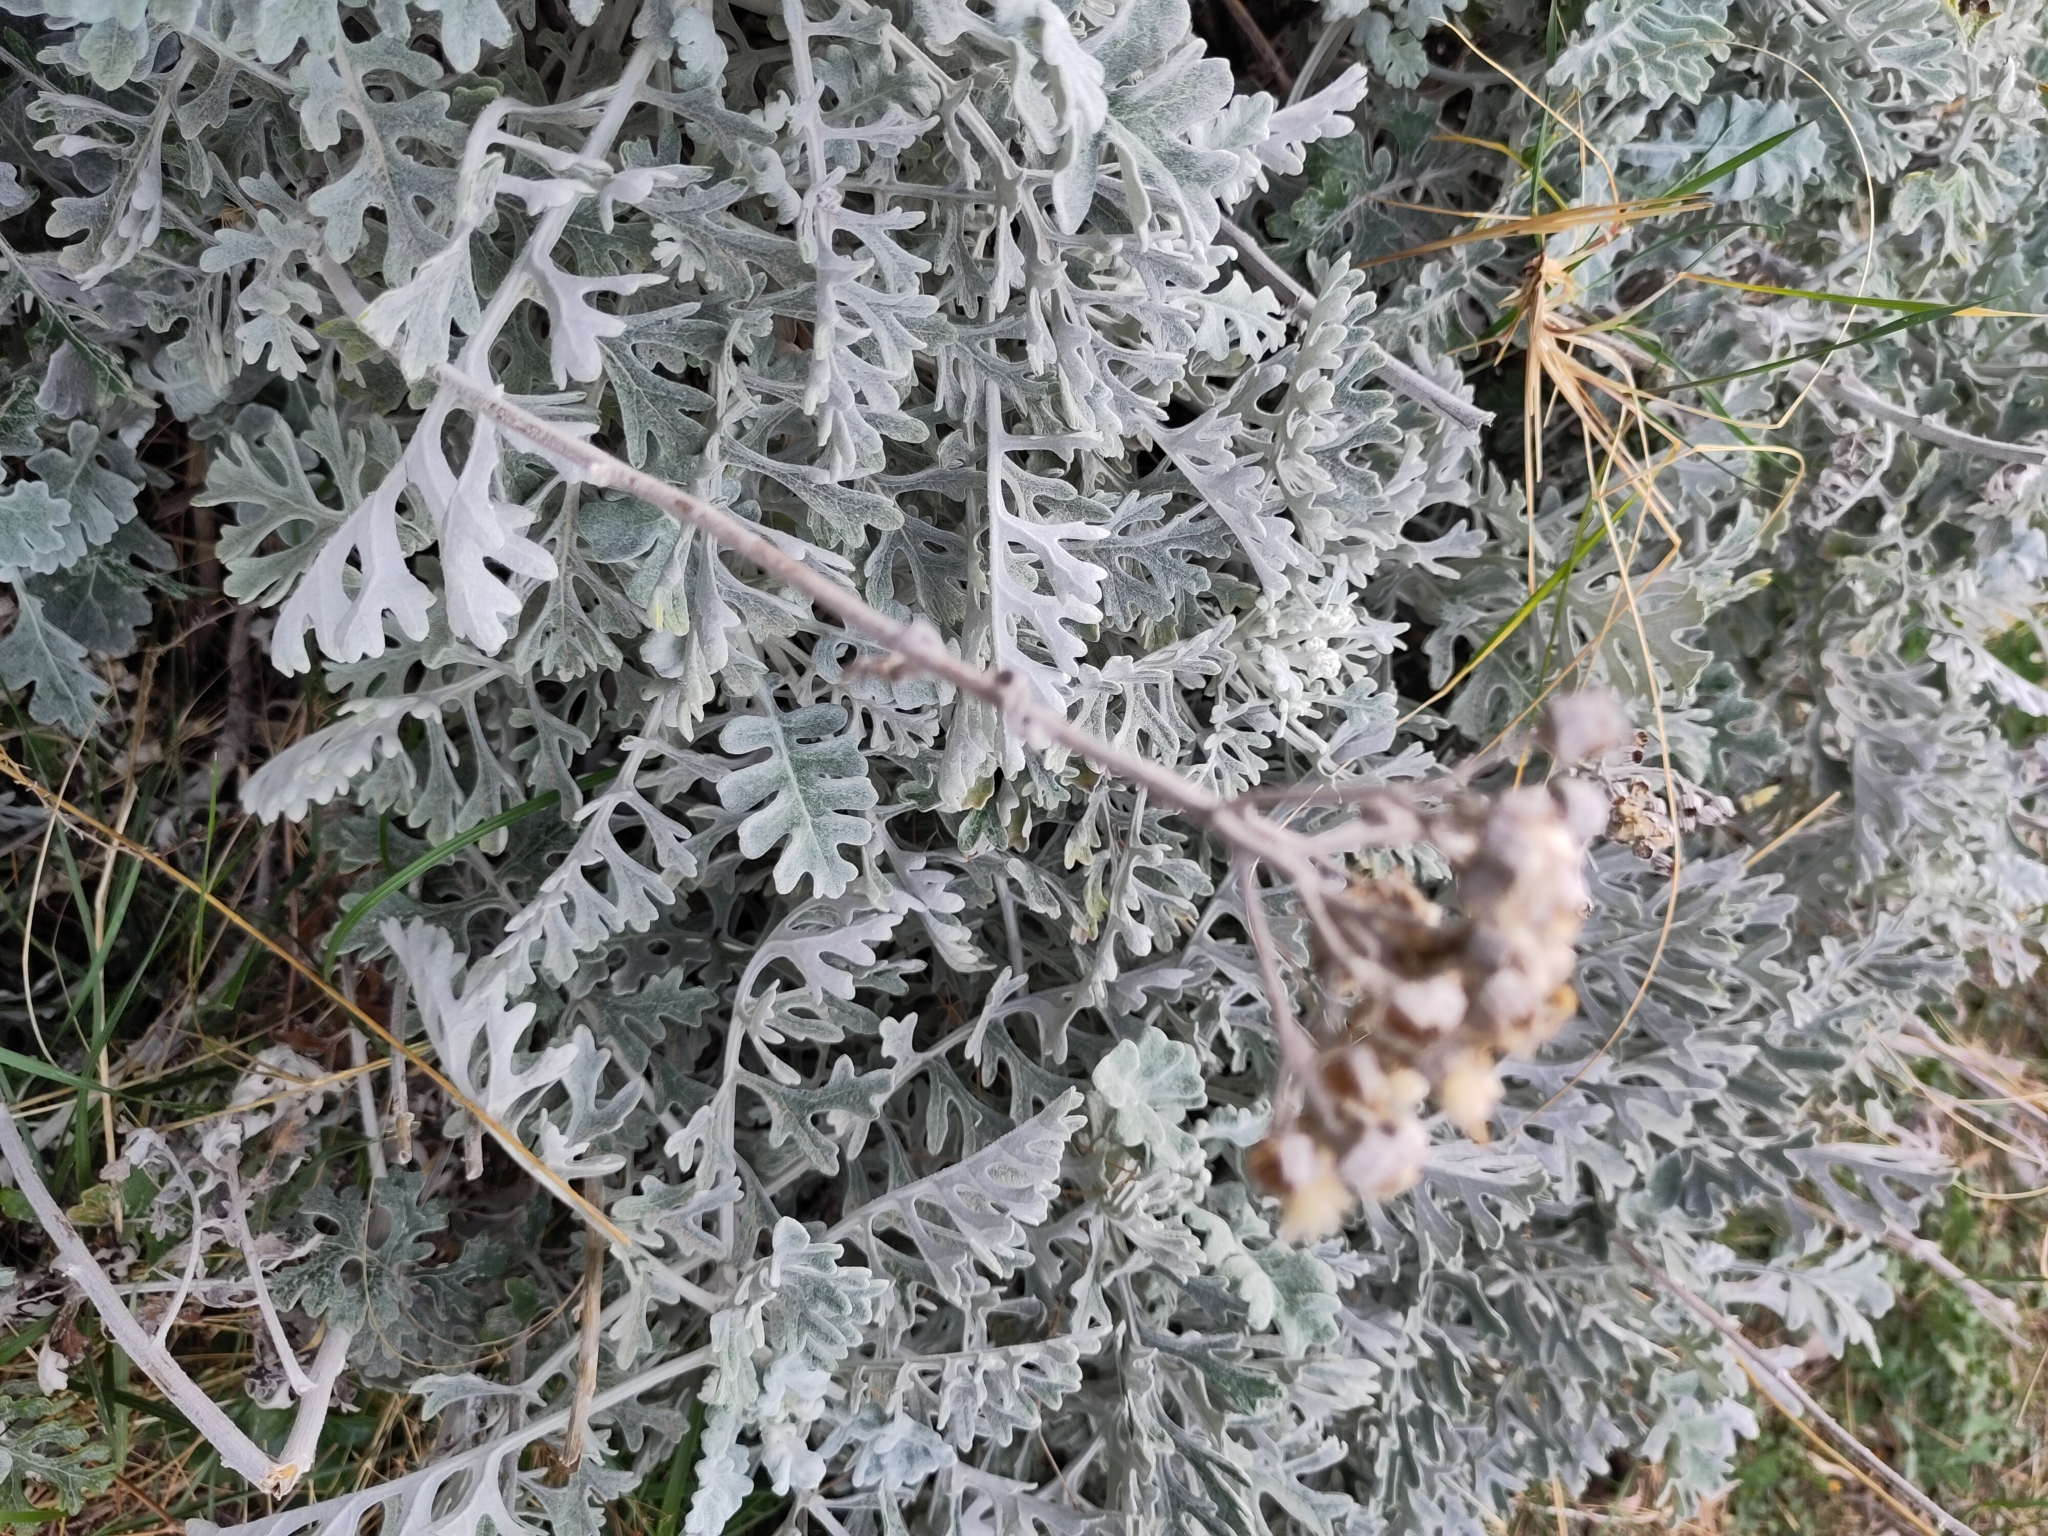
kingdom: Plantae
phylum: Tracheophyta
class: Magnoliopsida
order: Asterales
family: Asteraceae
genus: Jacobaea
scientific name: Jacobaea maritima
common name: Silver ragwort
